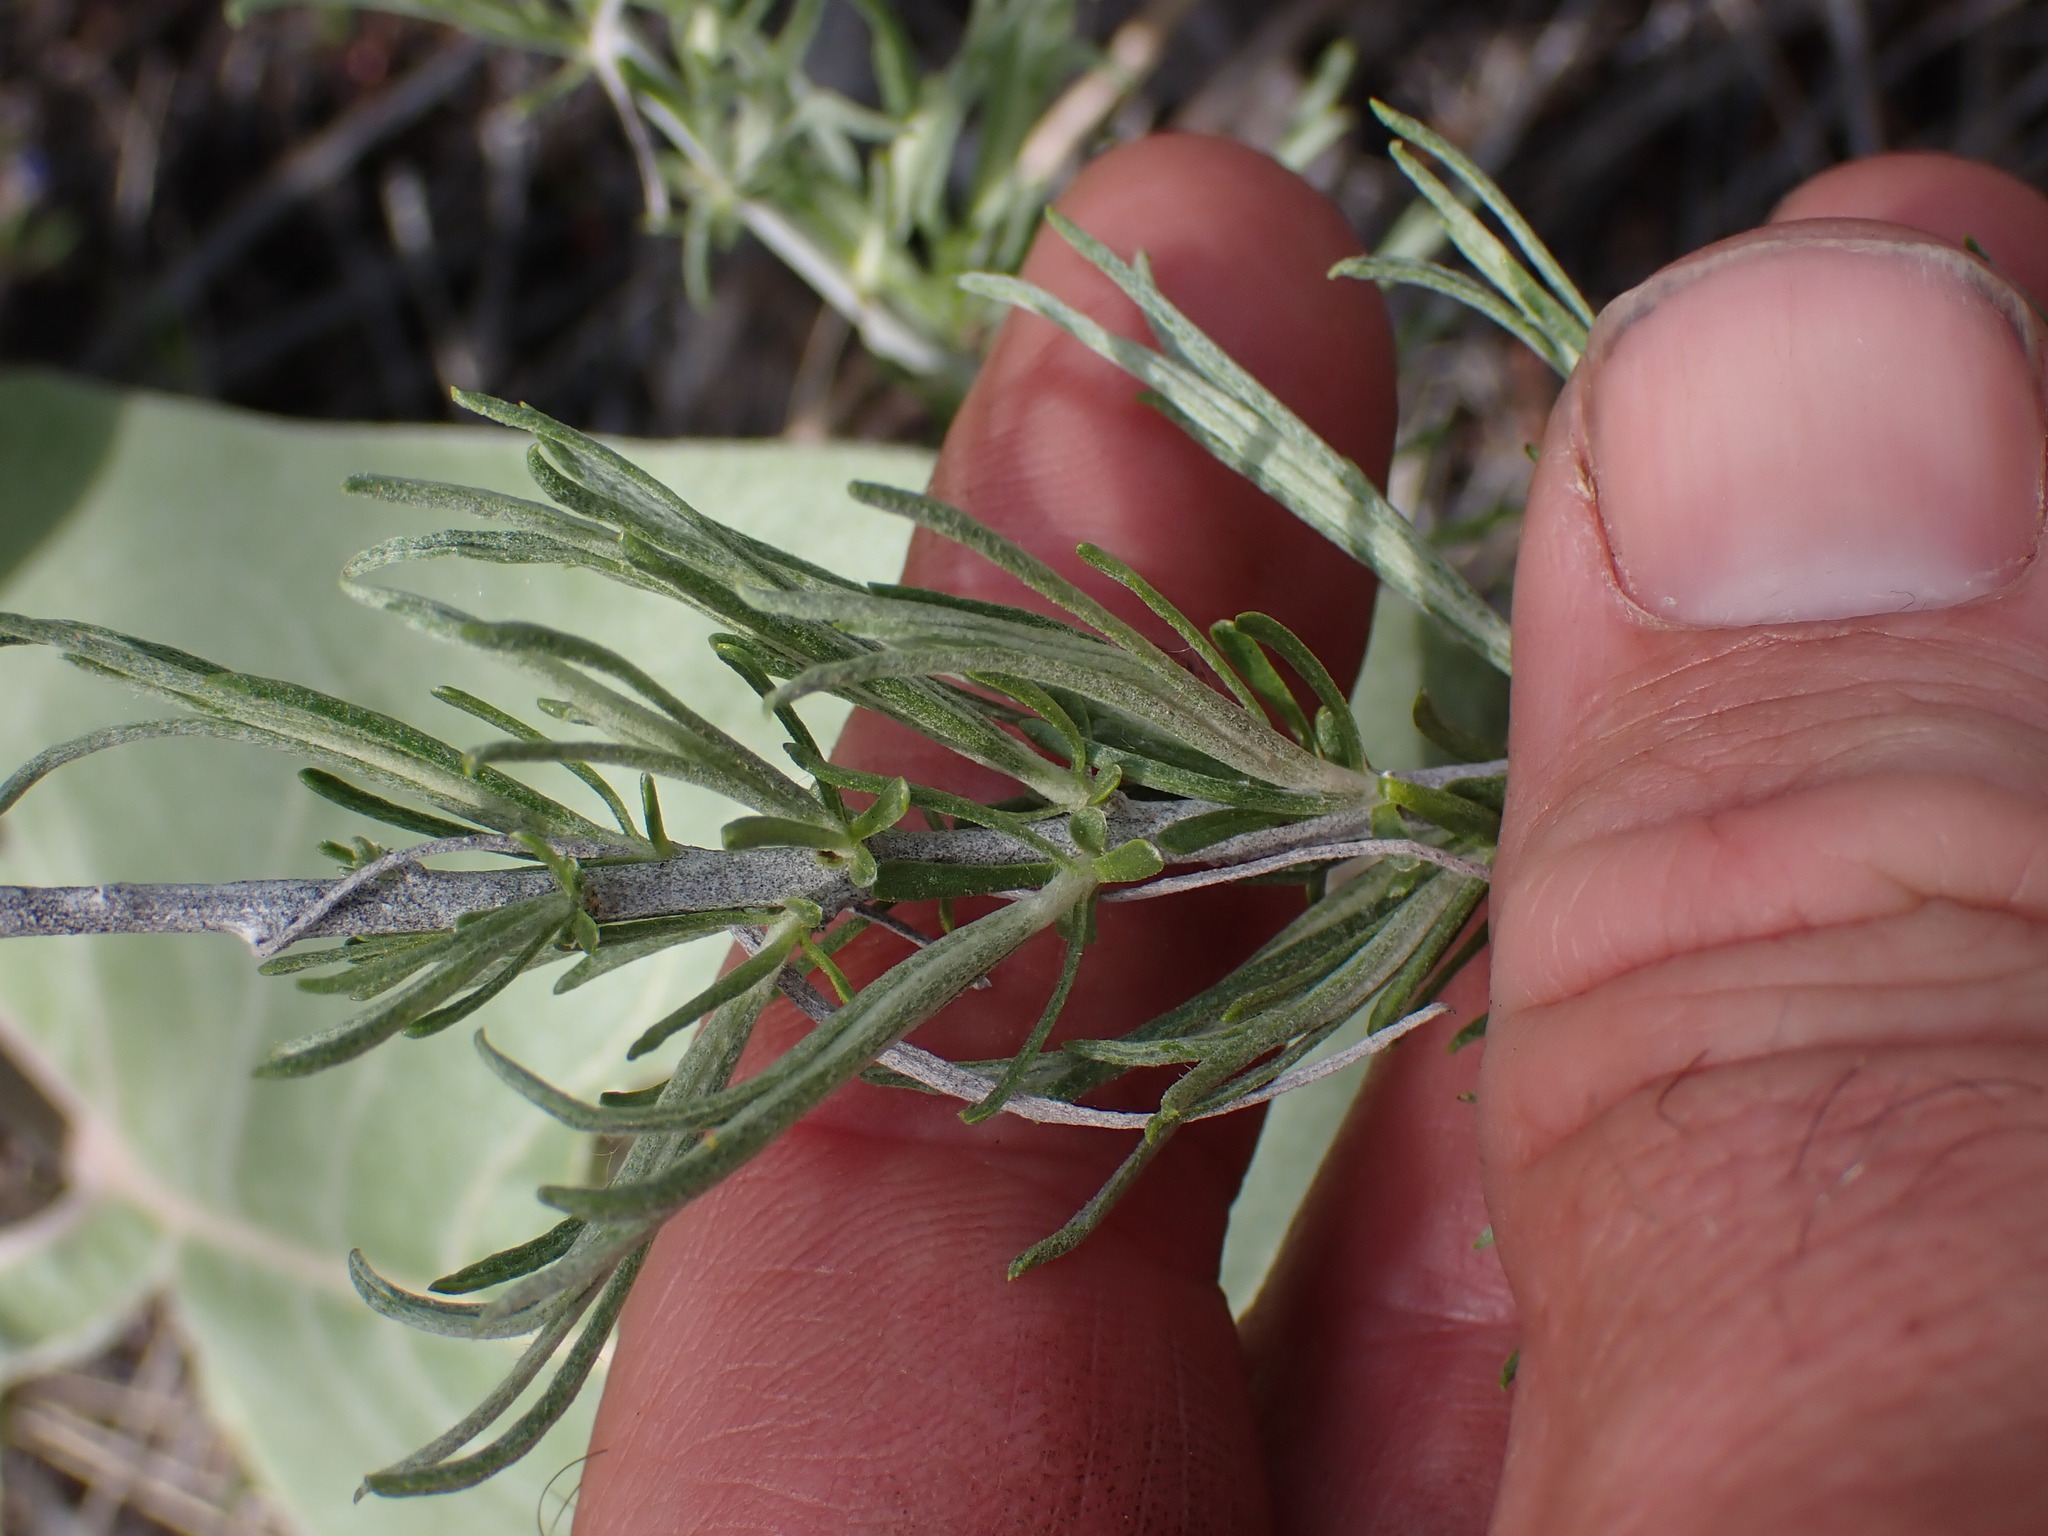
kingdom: Plantae
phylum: Tracheophyta
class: Magnoliopsida
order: Asterales
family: Asteraceae
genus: Ericameria
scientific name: Ericameria nauseosa
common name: Rubber rabbitbrush
